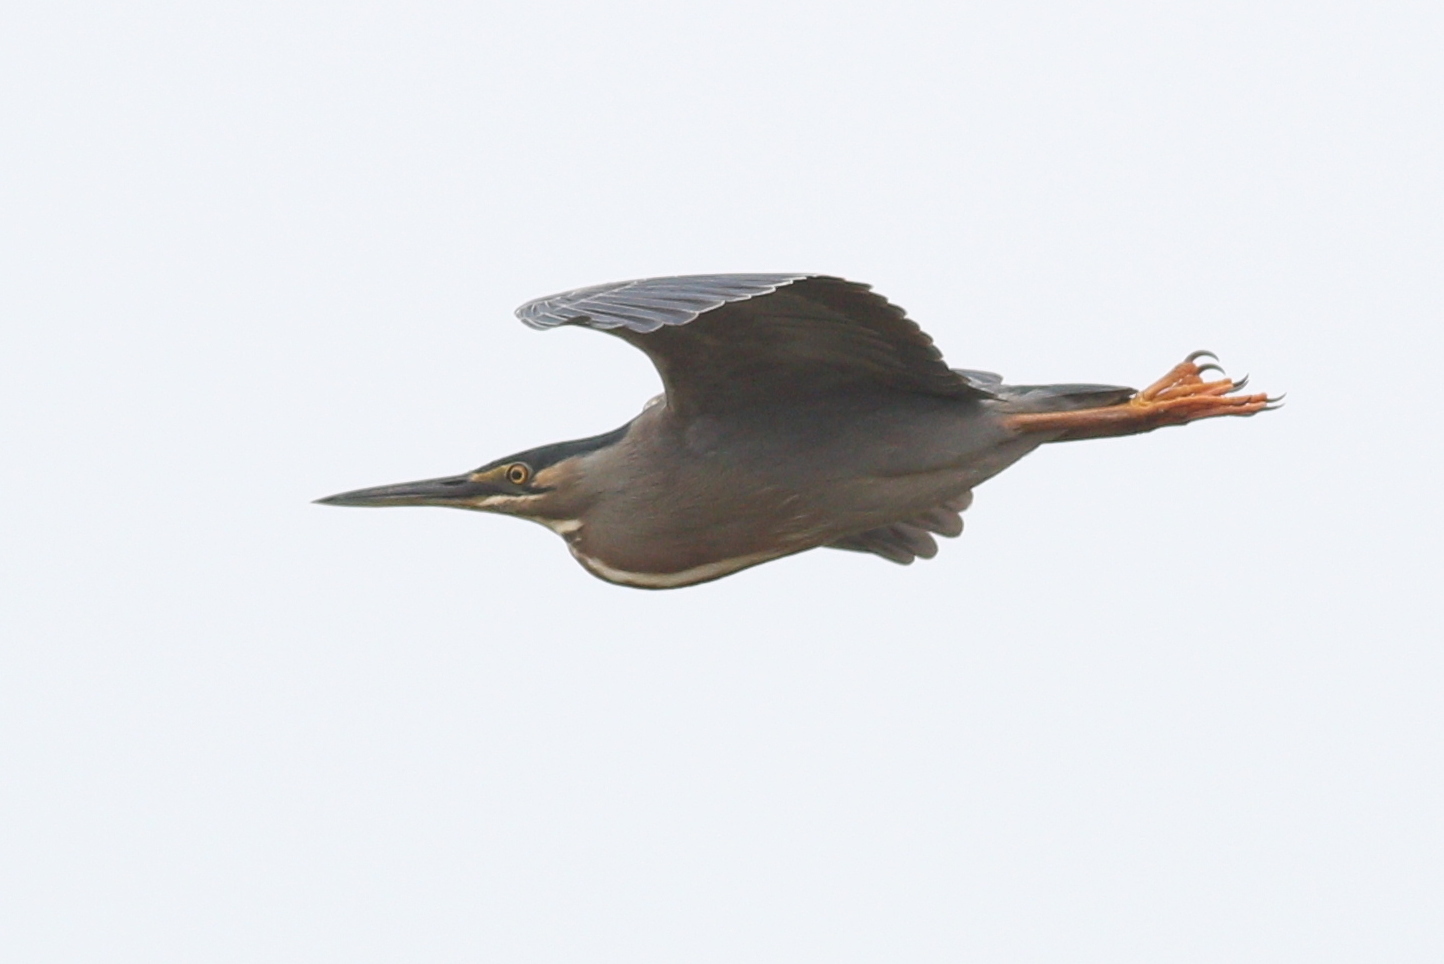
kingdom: Animalia
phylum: Chordata
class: Aves
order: Pelecaniformes
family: Ardeidae
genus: Butorides
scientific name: Butorides striata
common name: Striated heron
